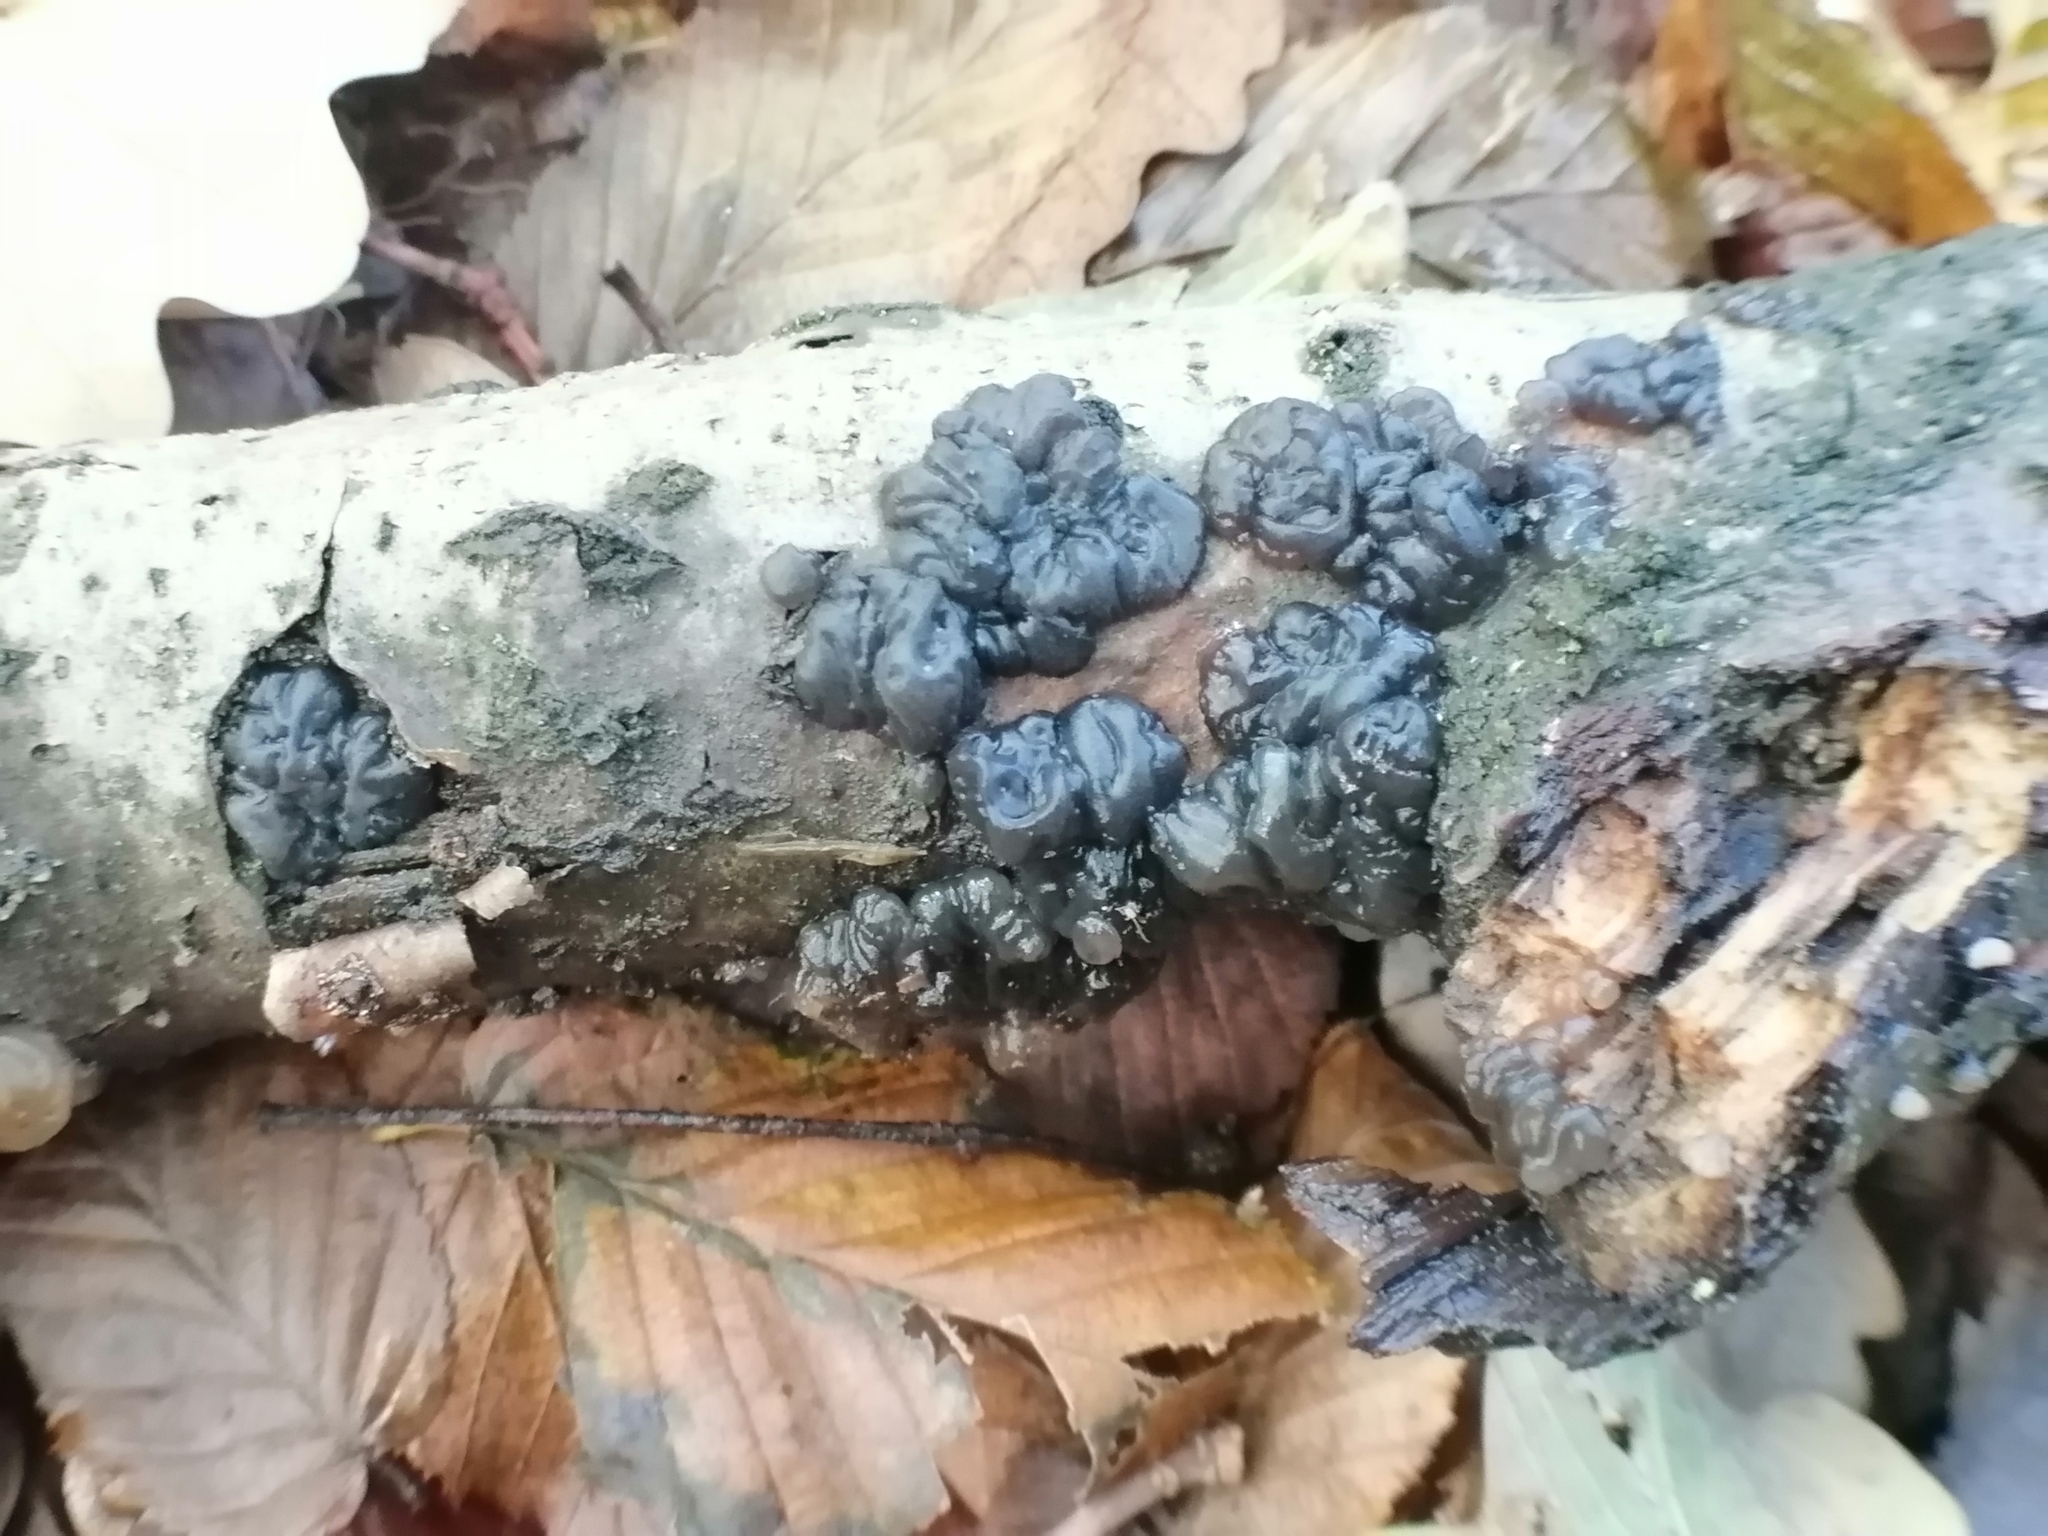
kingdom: Fungi
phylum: Basidiomycota
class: Agaricomycetes
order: Auriculariales
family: Auriculariaceae
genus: Exidia
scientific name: Exidia nigricans
